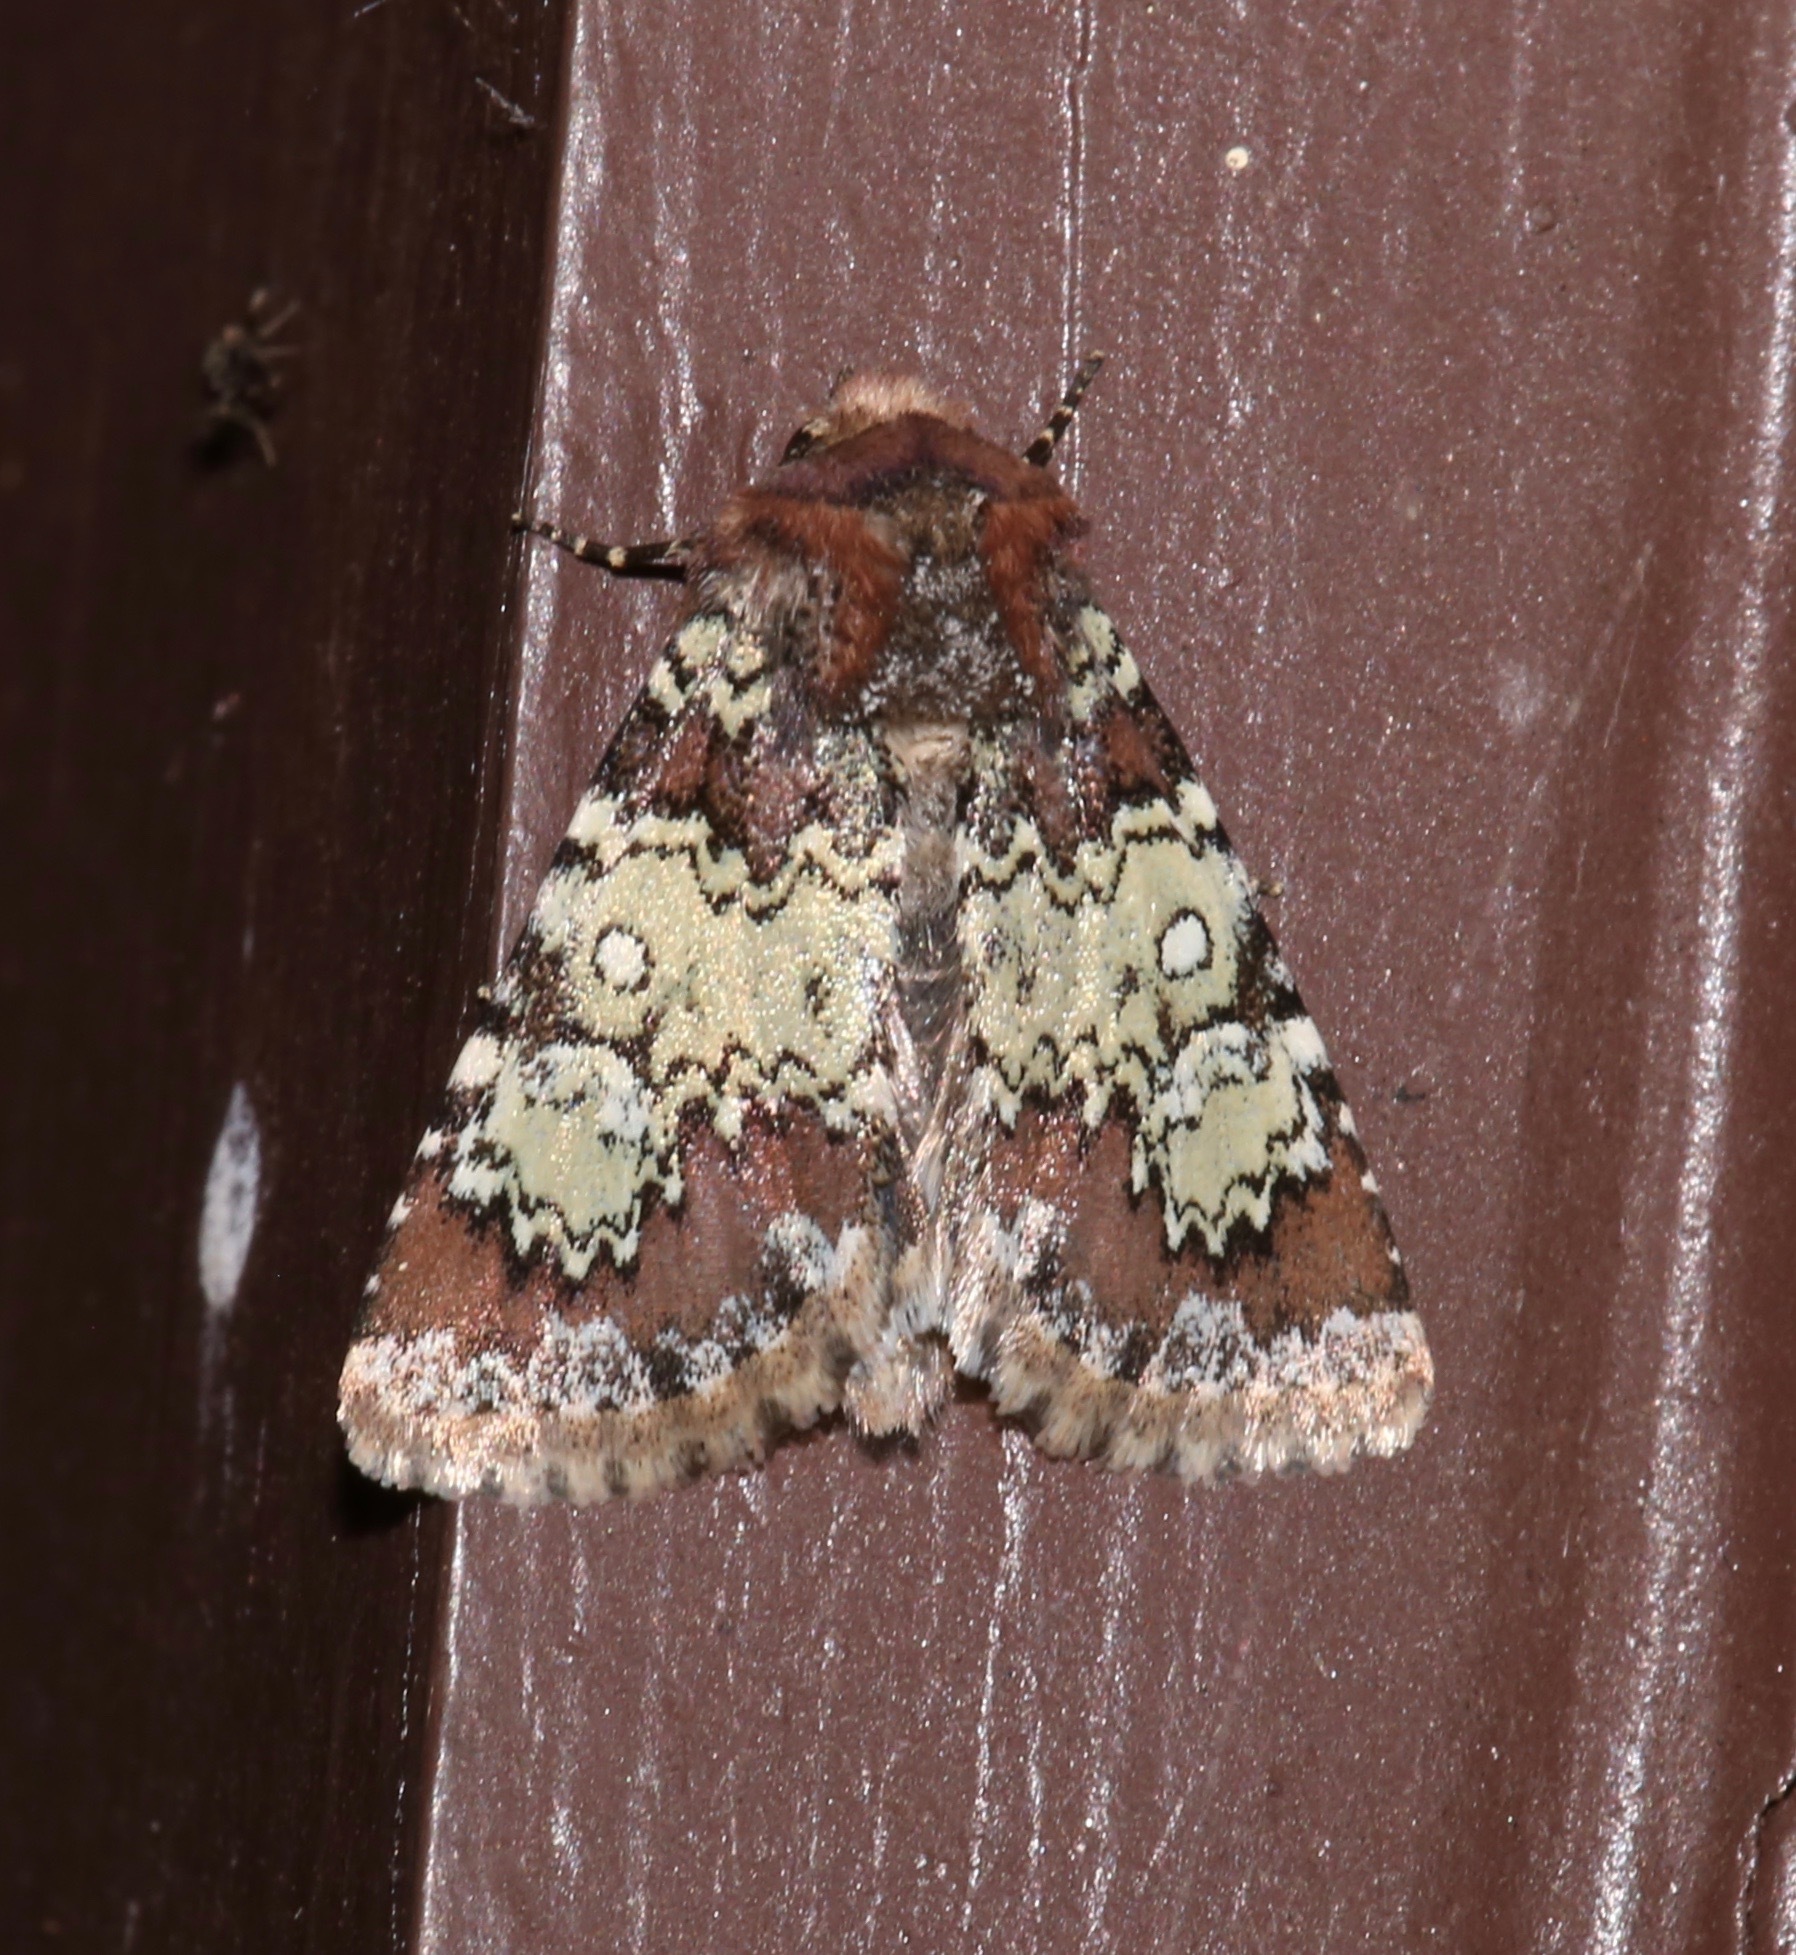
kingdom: Animalia
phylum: Arthropoda
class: Insecta
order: Lepidoptera
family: Noctuidae
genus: Hemibryomima
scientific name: Hemibryomima chryselectra
